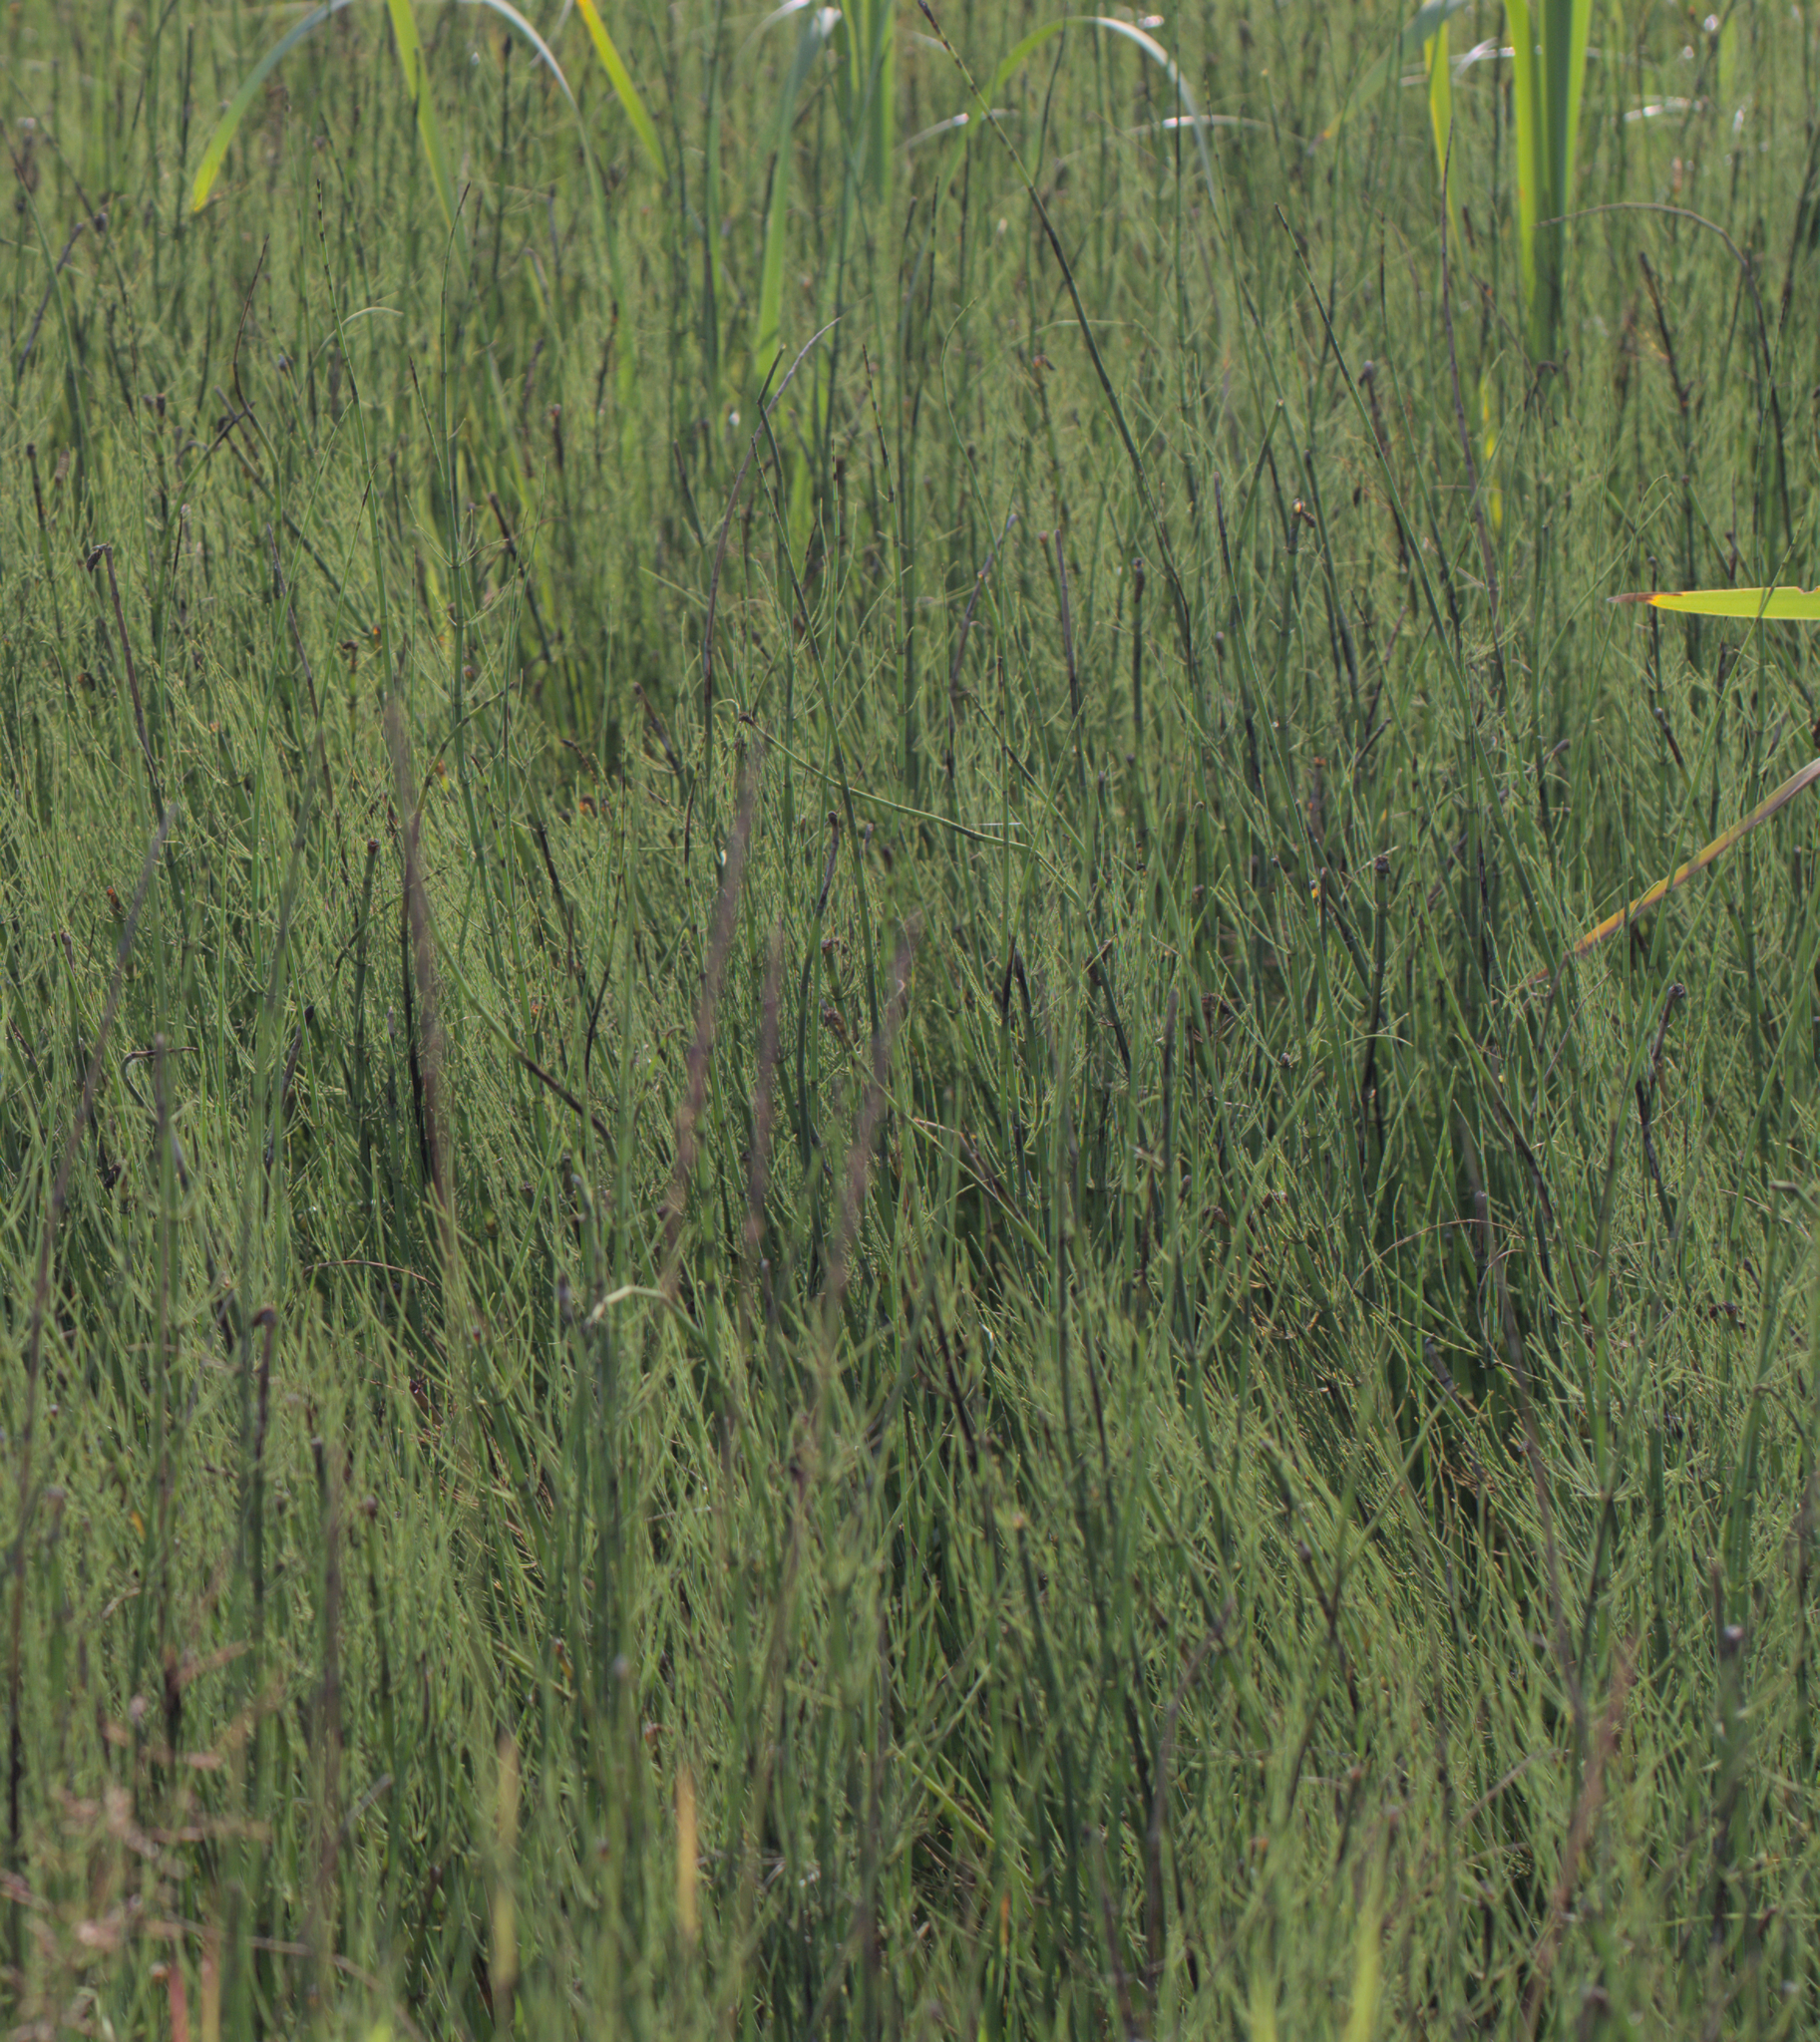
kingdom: Plantae
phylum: Tracheophyta
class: Polypodiopsida
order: Equisetales
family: Equisetaceae
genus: Equisetum
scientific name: Equisetum fluviatile
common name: Water horsetail
